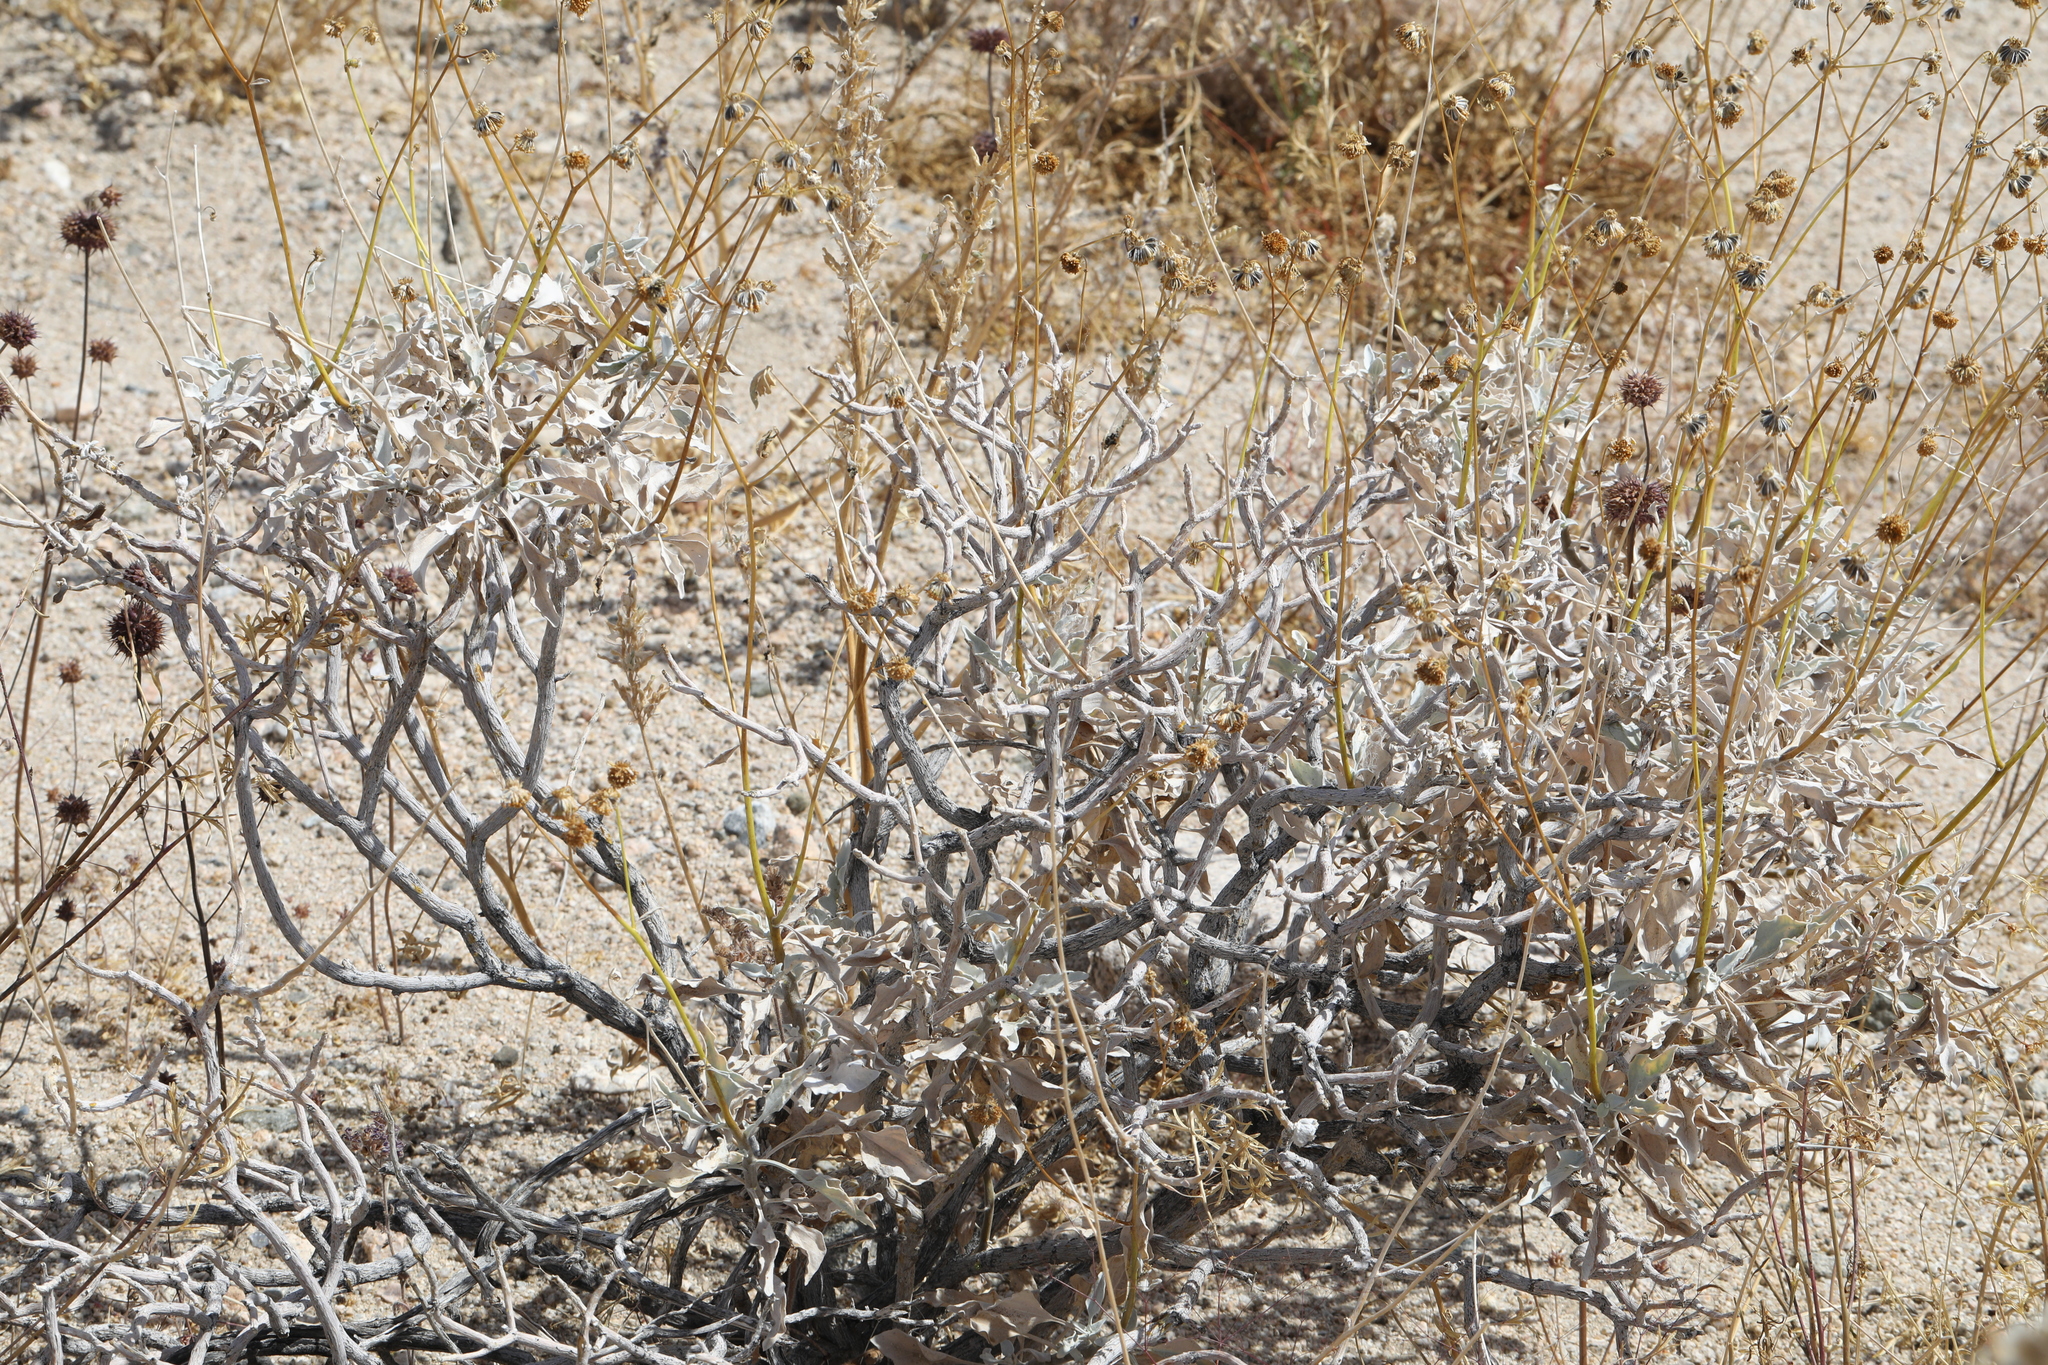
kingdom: Plantae
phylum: Tracheophyta
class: Magnoliopsida
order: Asterales
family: Asteraceae
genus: Encelia
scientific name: Encelia farinosa
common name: Brittlebush
